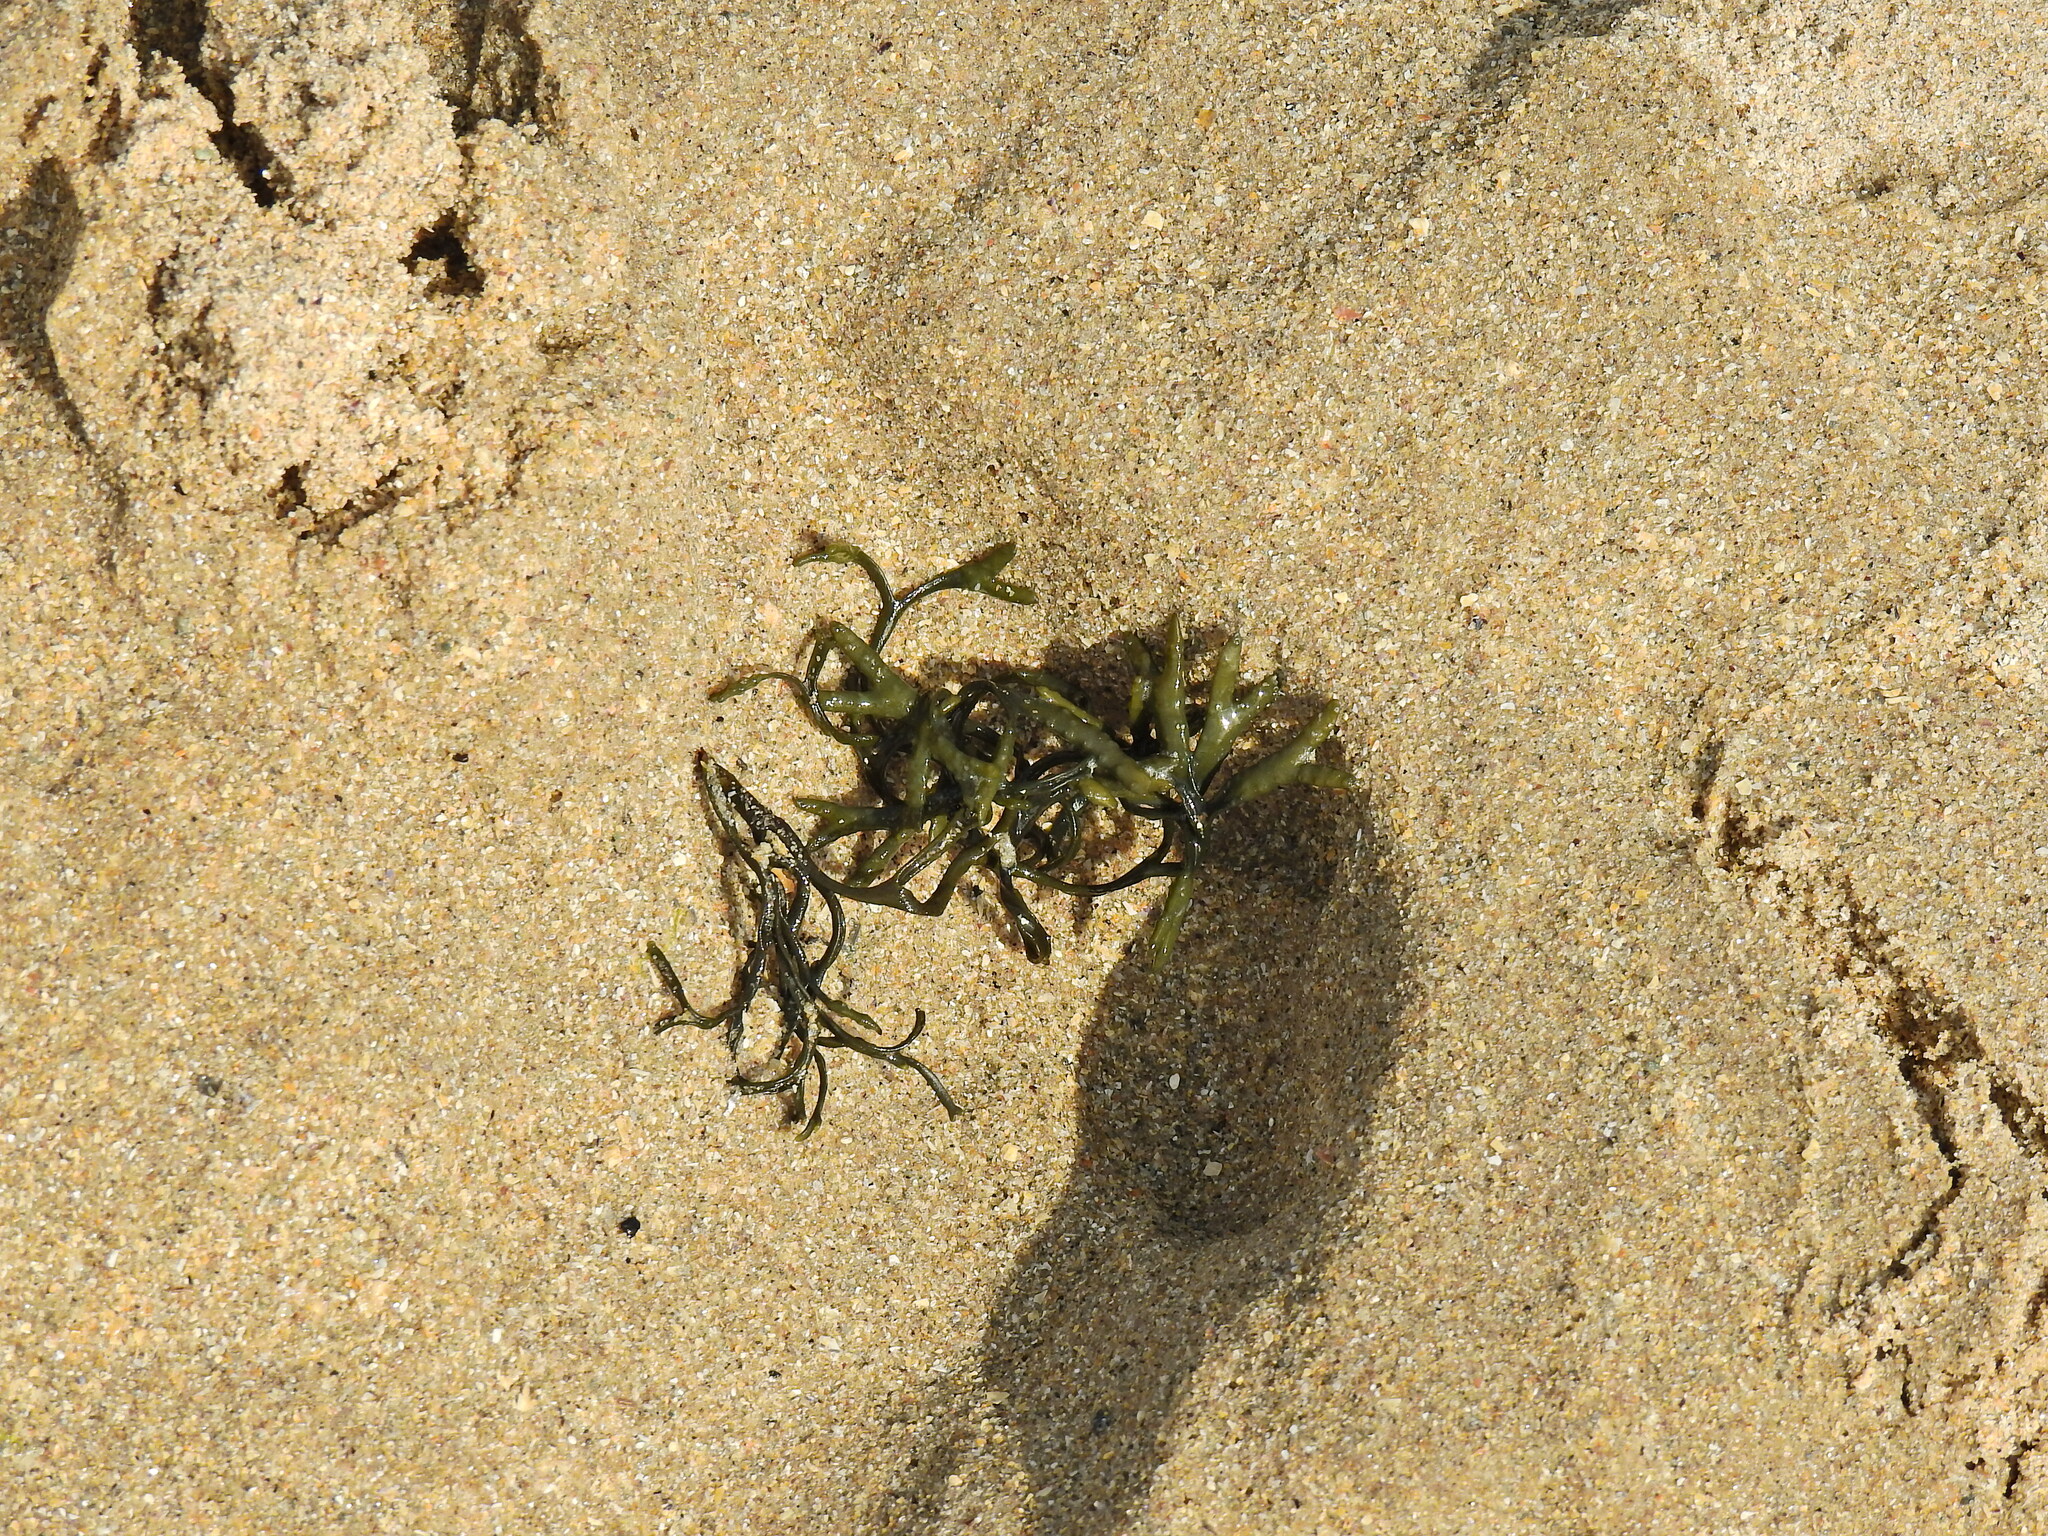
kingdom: Chromista
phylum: Ochrophyta
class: Phaeophyceae
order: Fucales
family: Fucaceae
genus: Pelvetia
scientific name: Pelvetia canaliculata
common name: Channelled wrack
